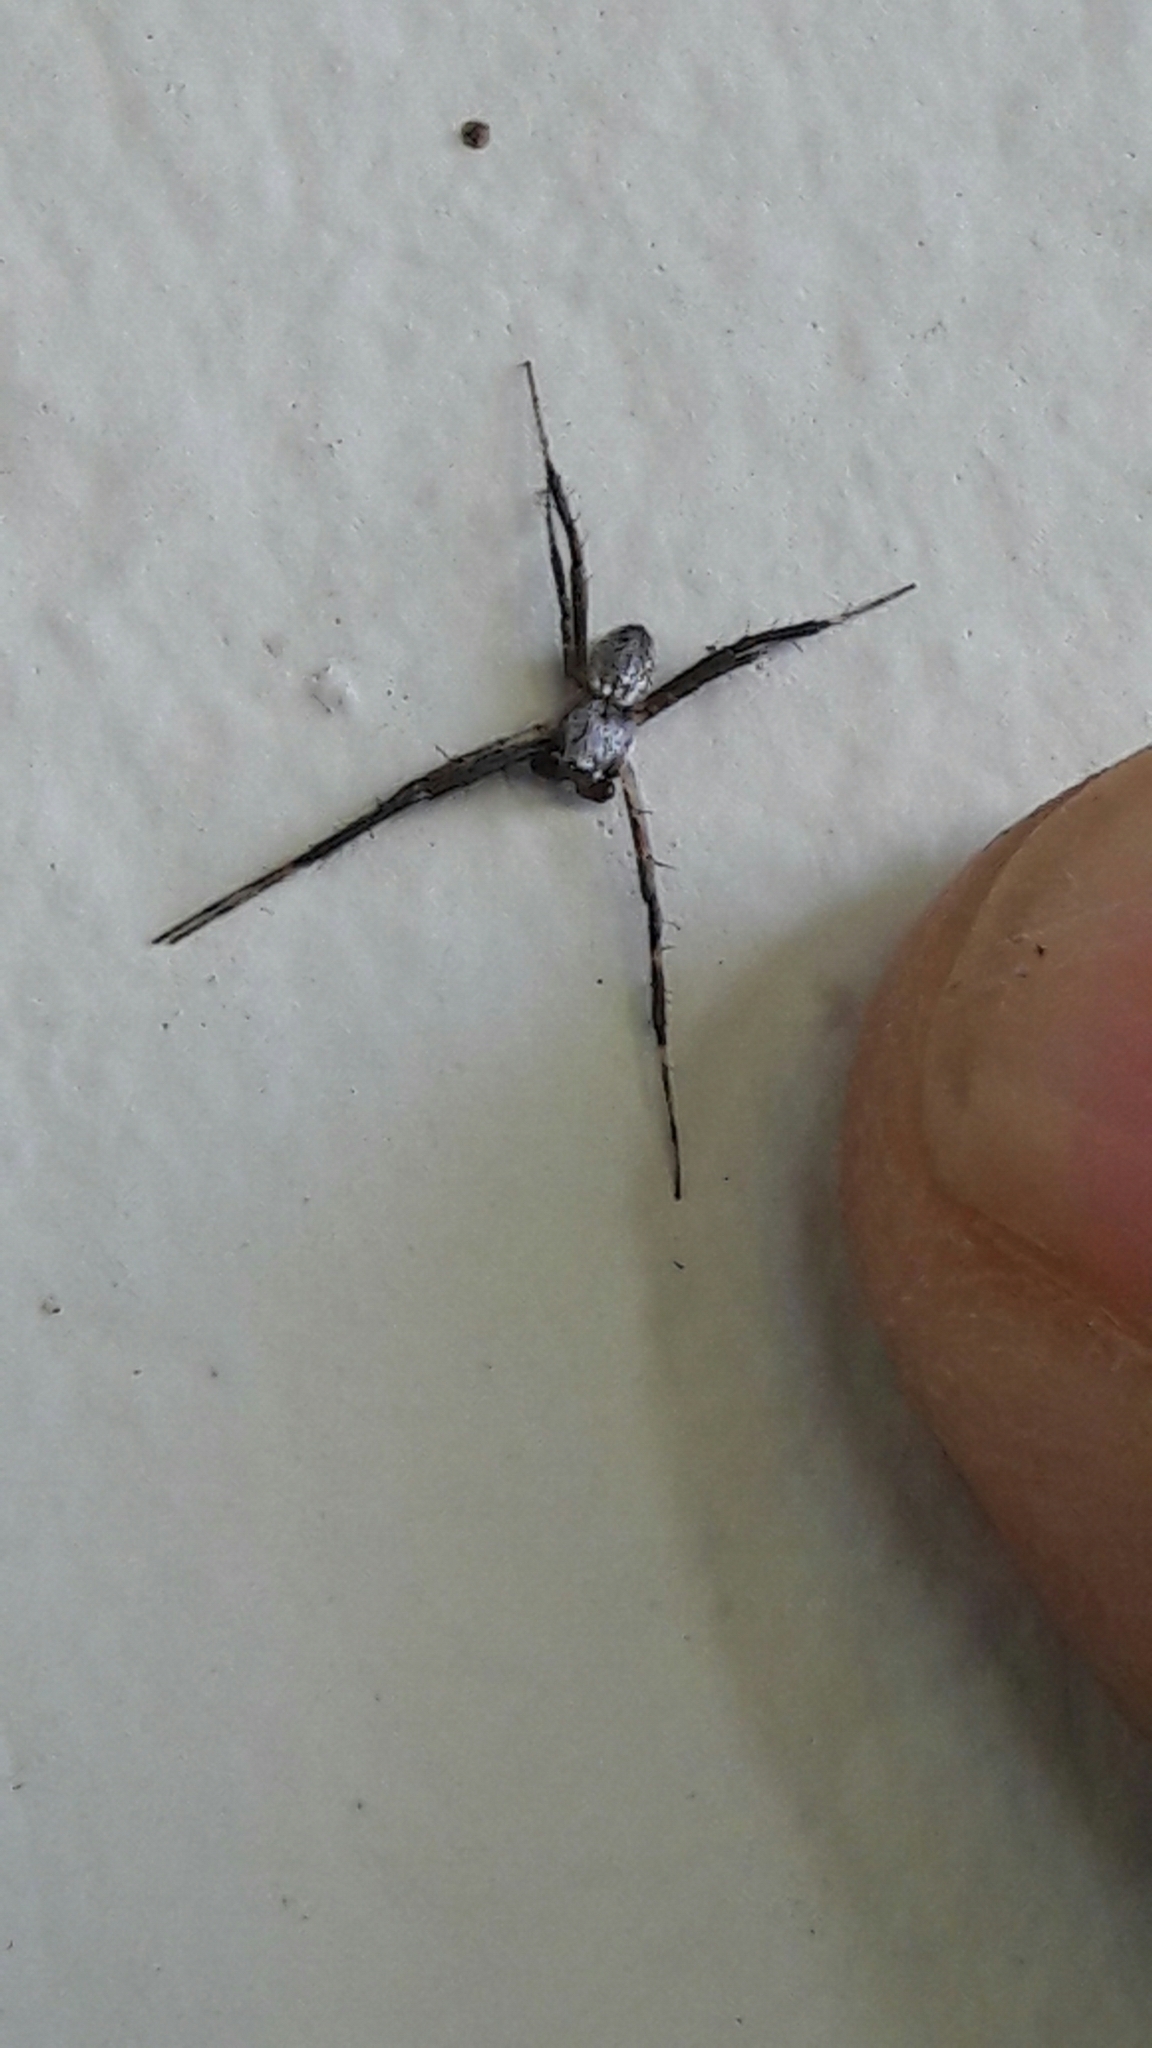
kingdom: Animalia
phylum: Arthropoda
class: Arachnida
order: Araneae
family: Araneidae
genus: Argiope
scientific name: Argiope argentata
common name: Orb weavers
